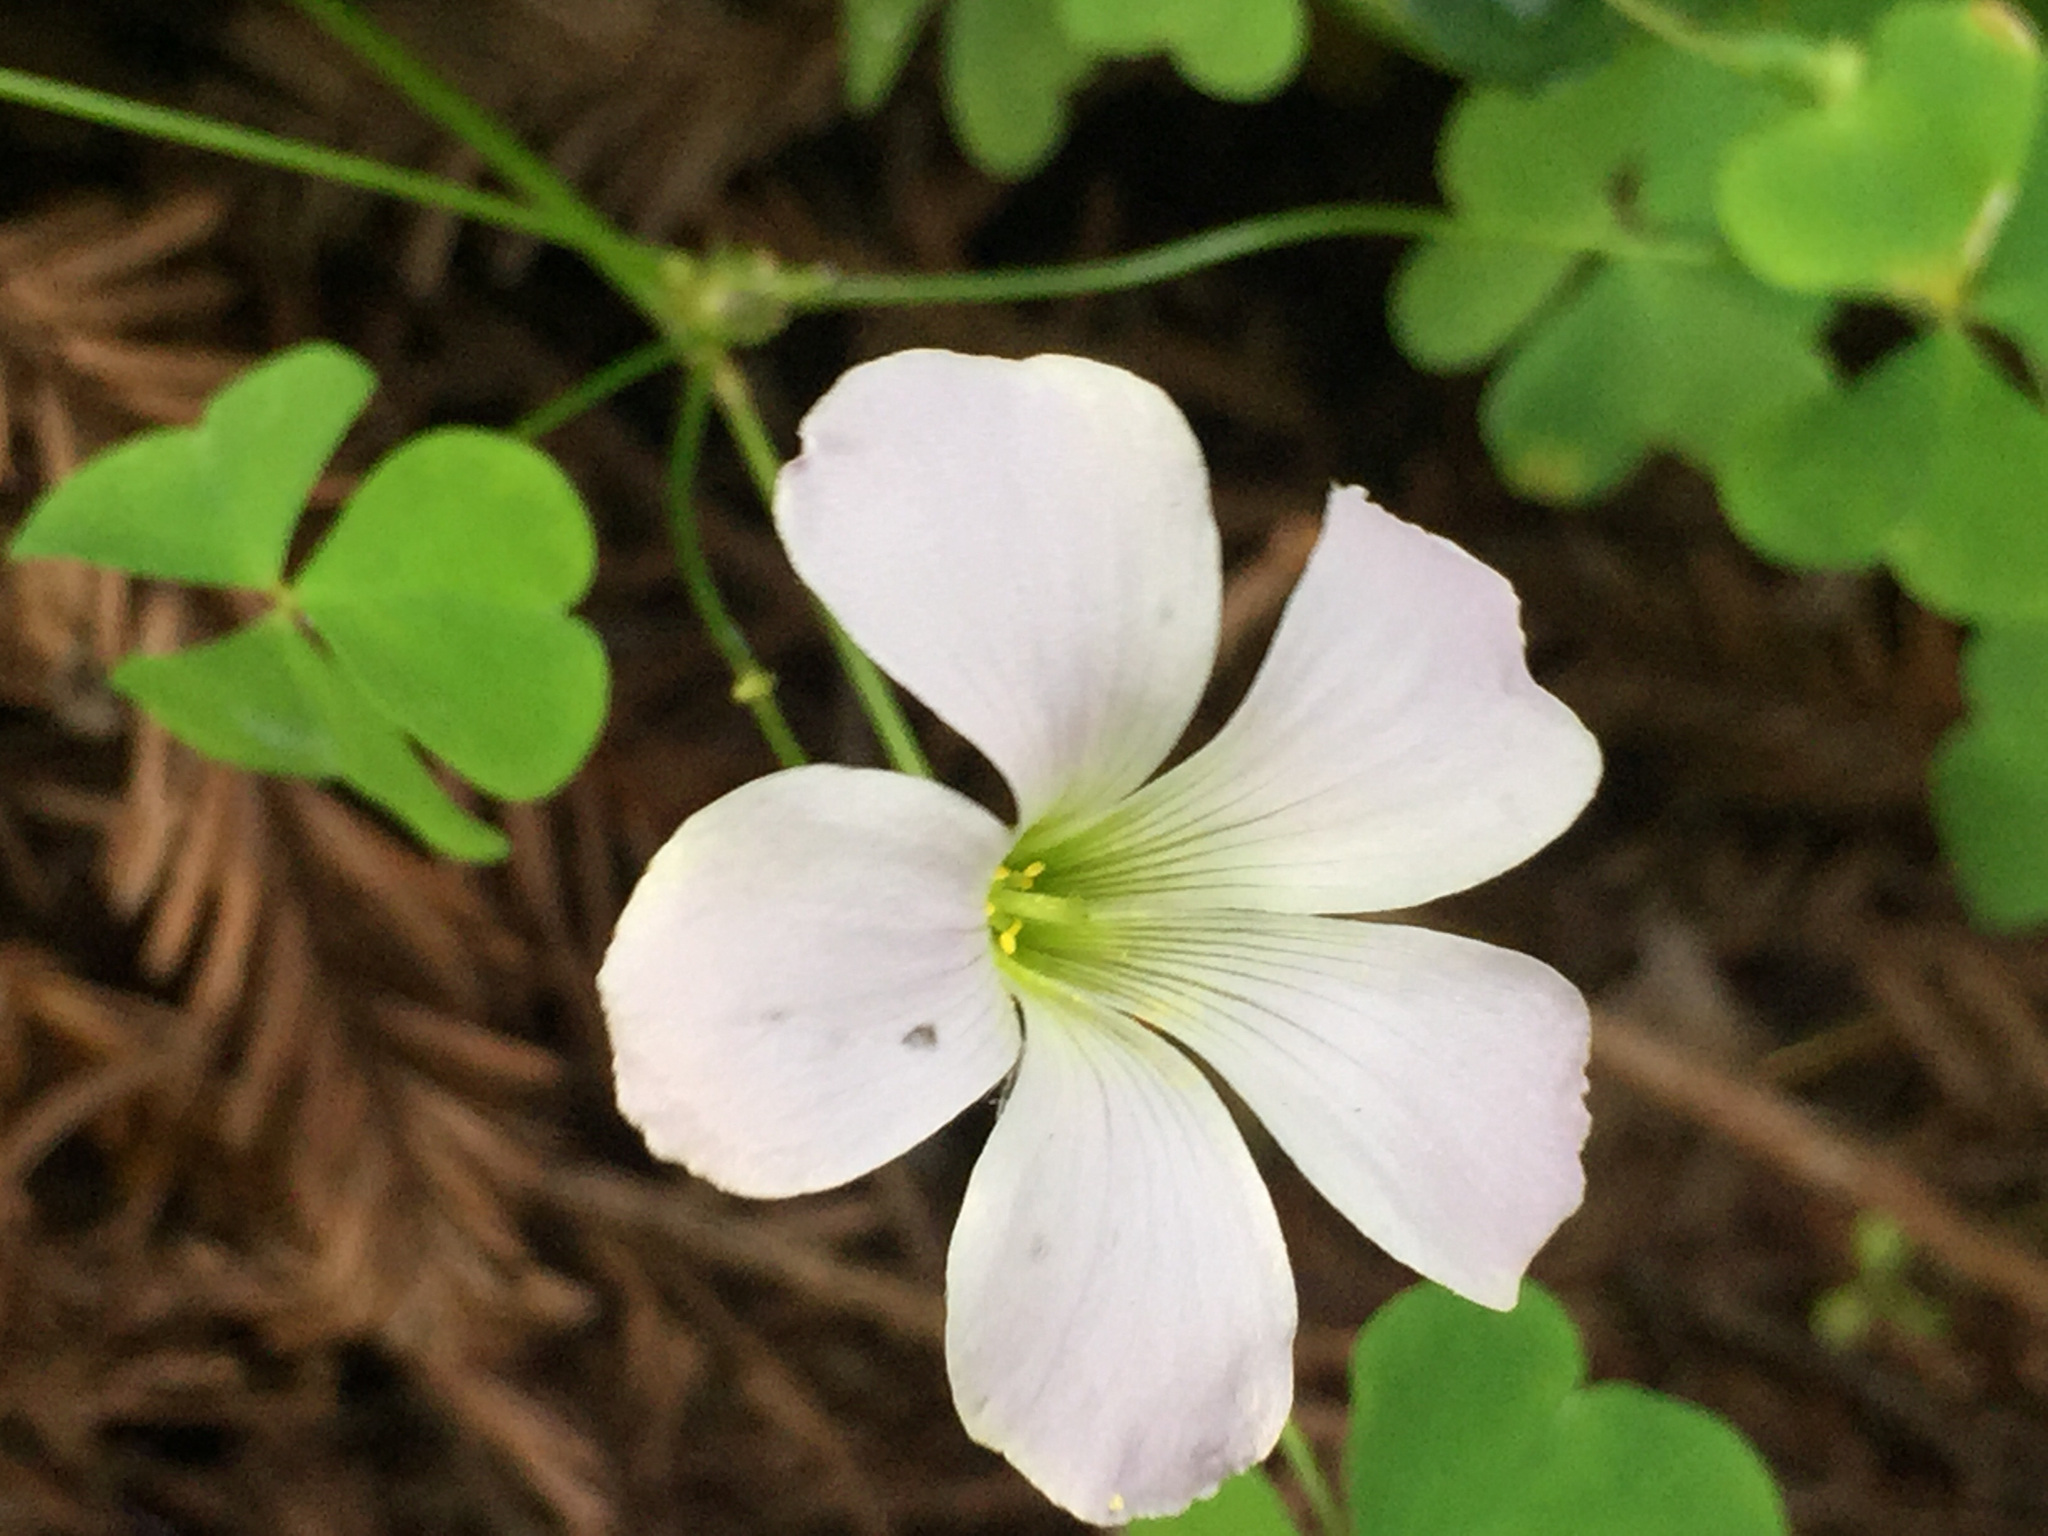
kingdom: Plantae
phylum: Tracheophyta
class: Magnoliopsida
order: Oxalidales
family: Oxalidaceae
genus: Oxalis
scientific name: Oxalis incarnata
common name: Pale pink-sorrel
